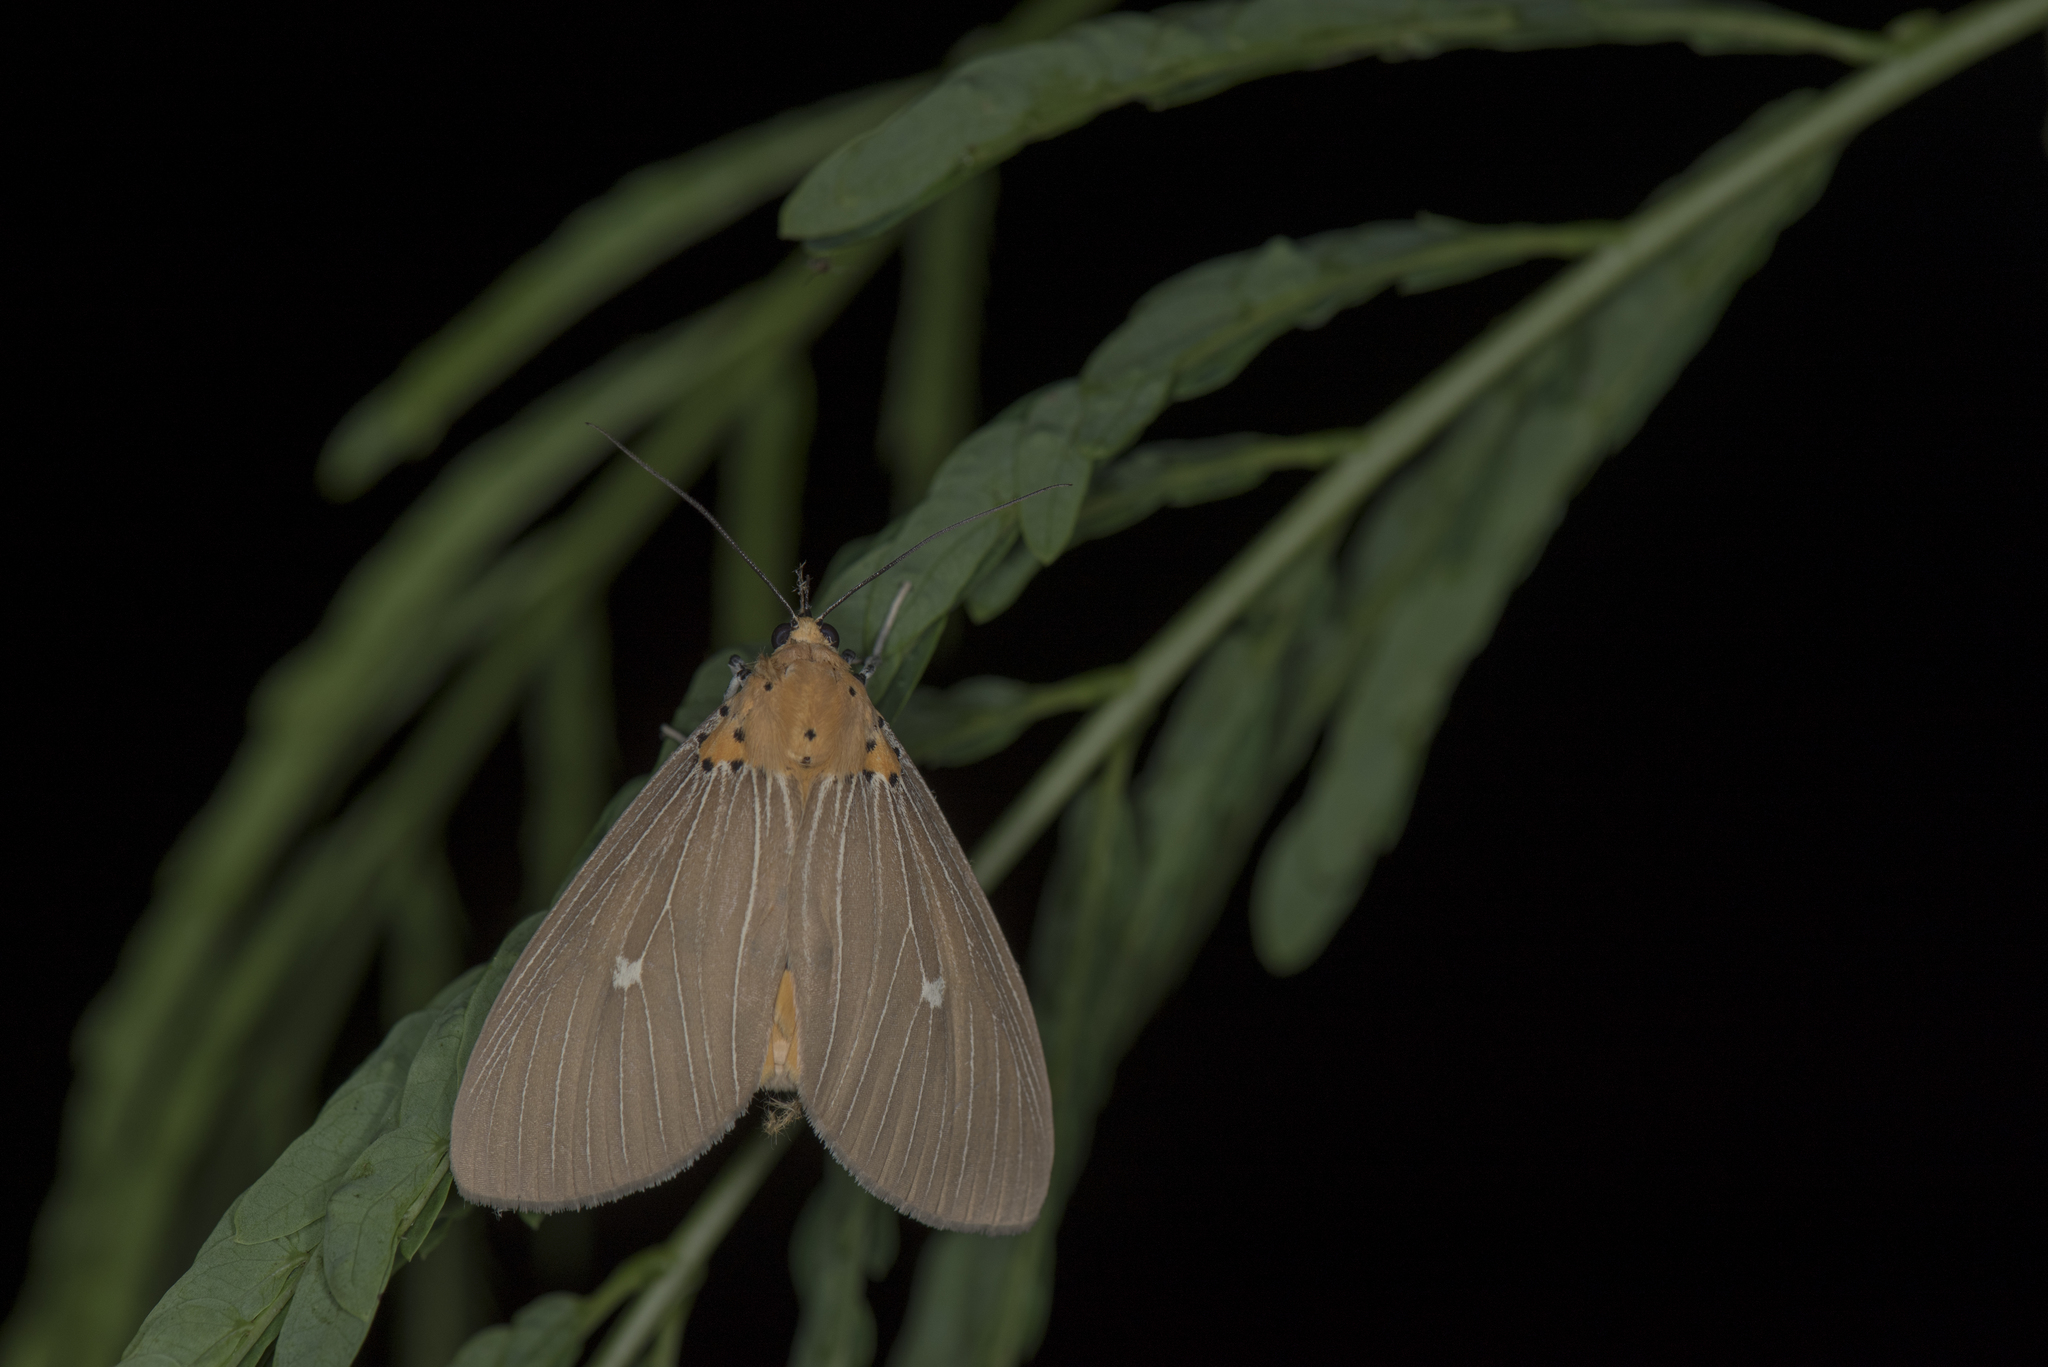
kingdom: Animalia
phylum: Arthropoda
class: Insecta
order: Lepidoptera
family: Erebidae
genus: Asota
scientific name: Asota caricae
